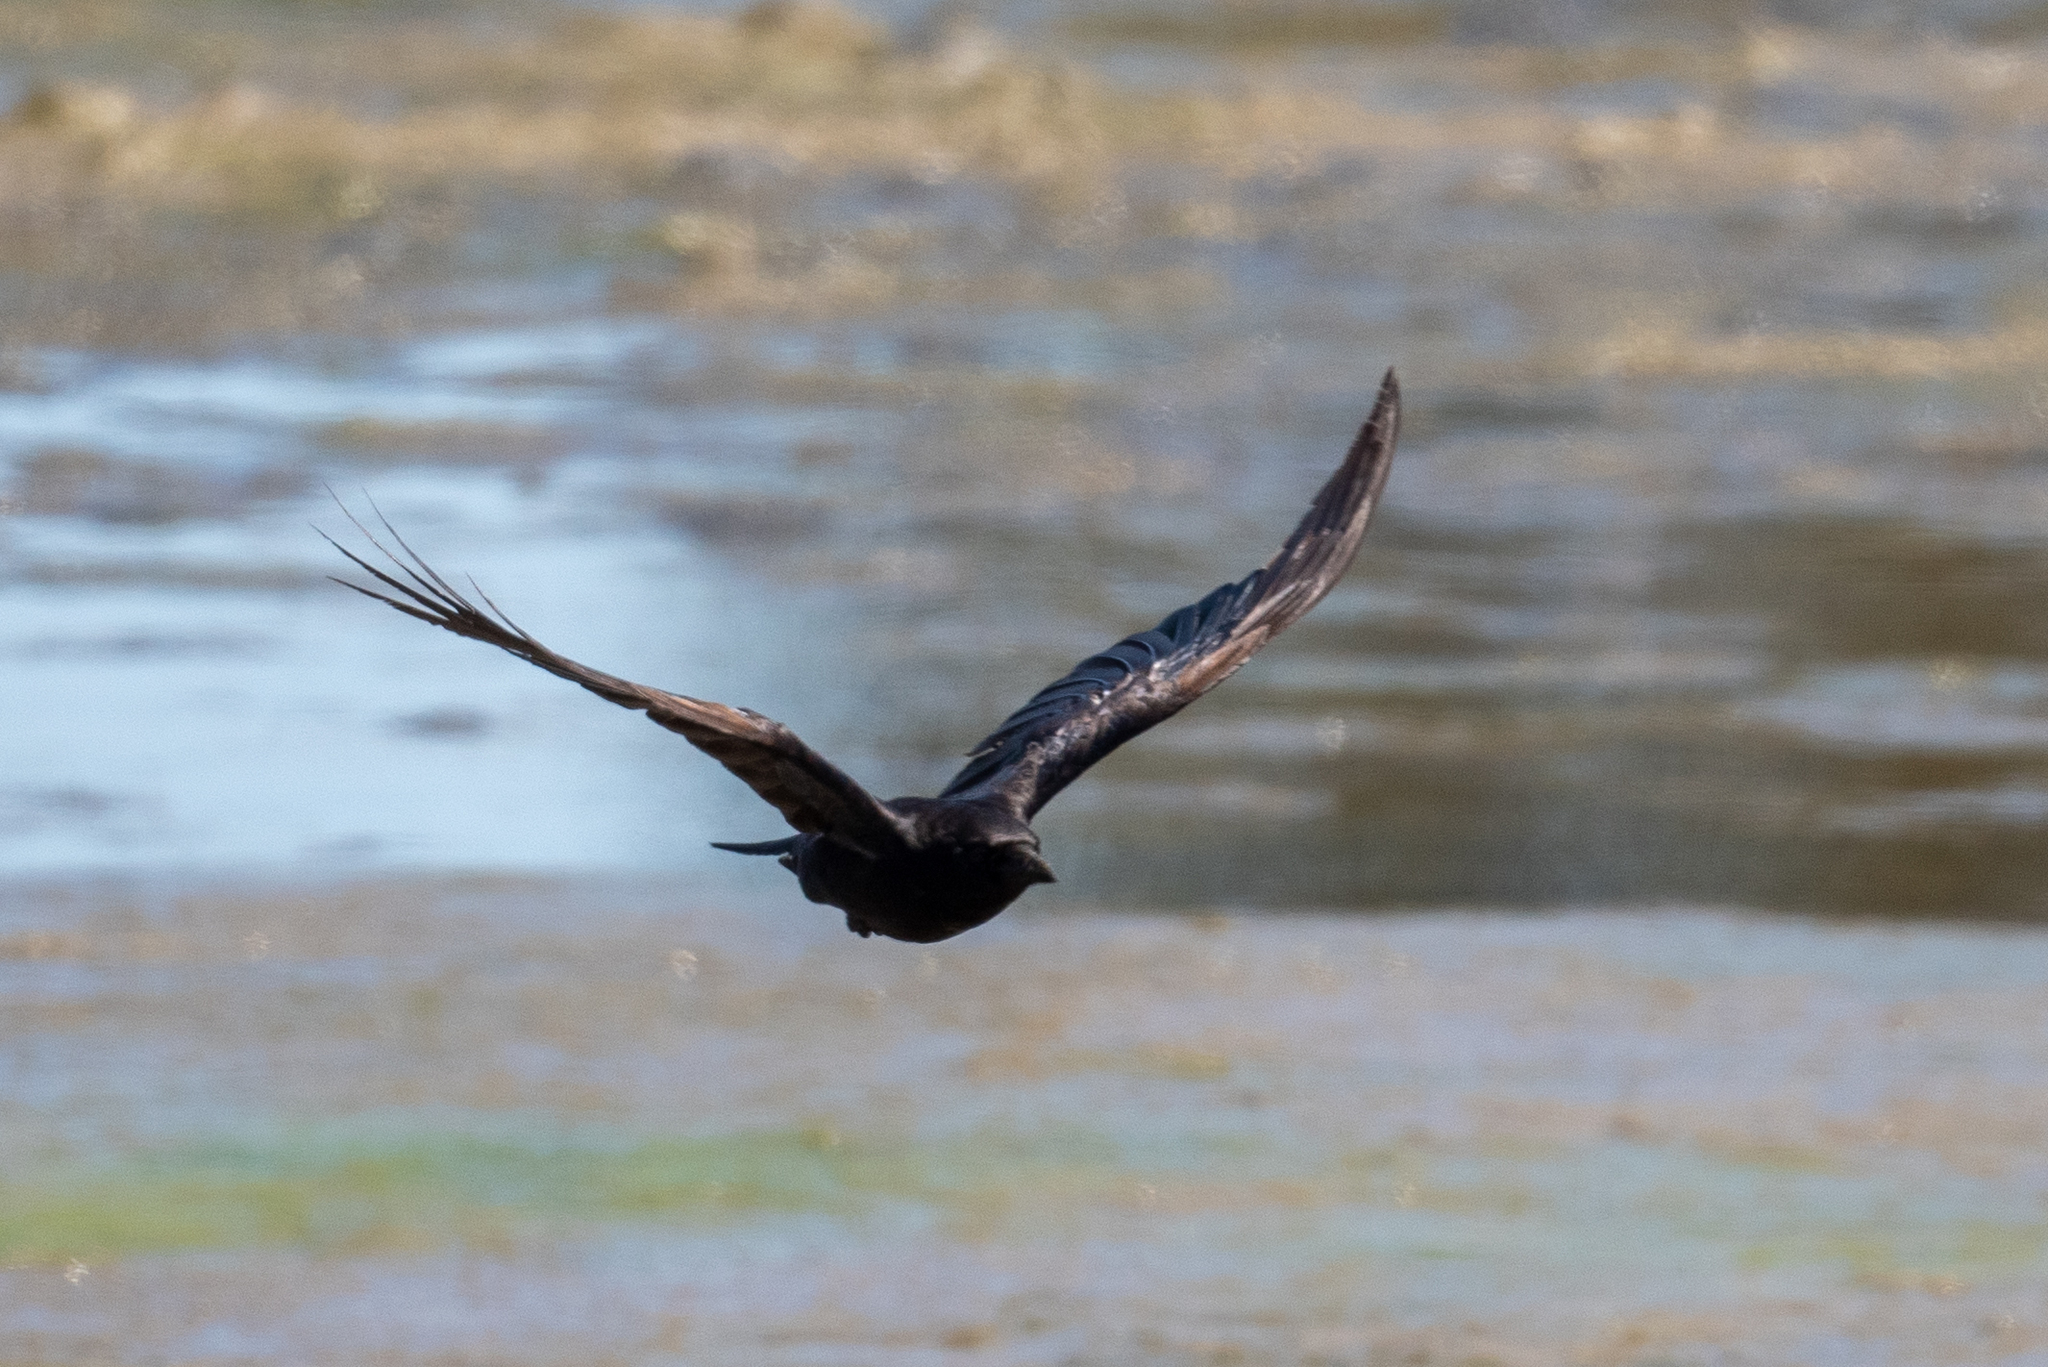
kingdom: Animalia
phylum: Chordata
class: Aves
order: Passeriformes
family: Corvidae
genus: Corvus
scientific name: Corvus corax
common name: Common raven
